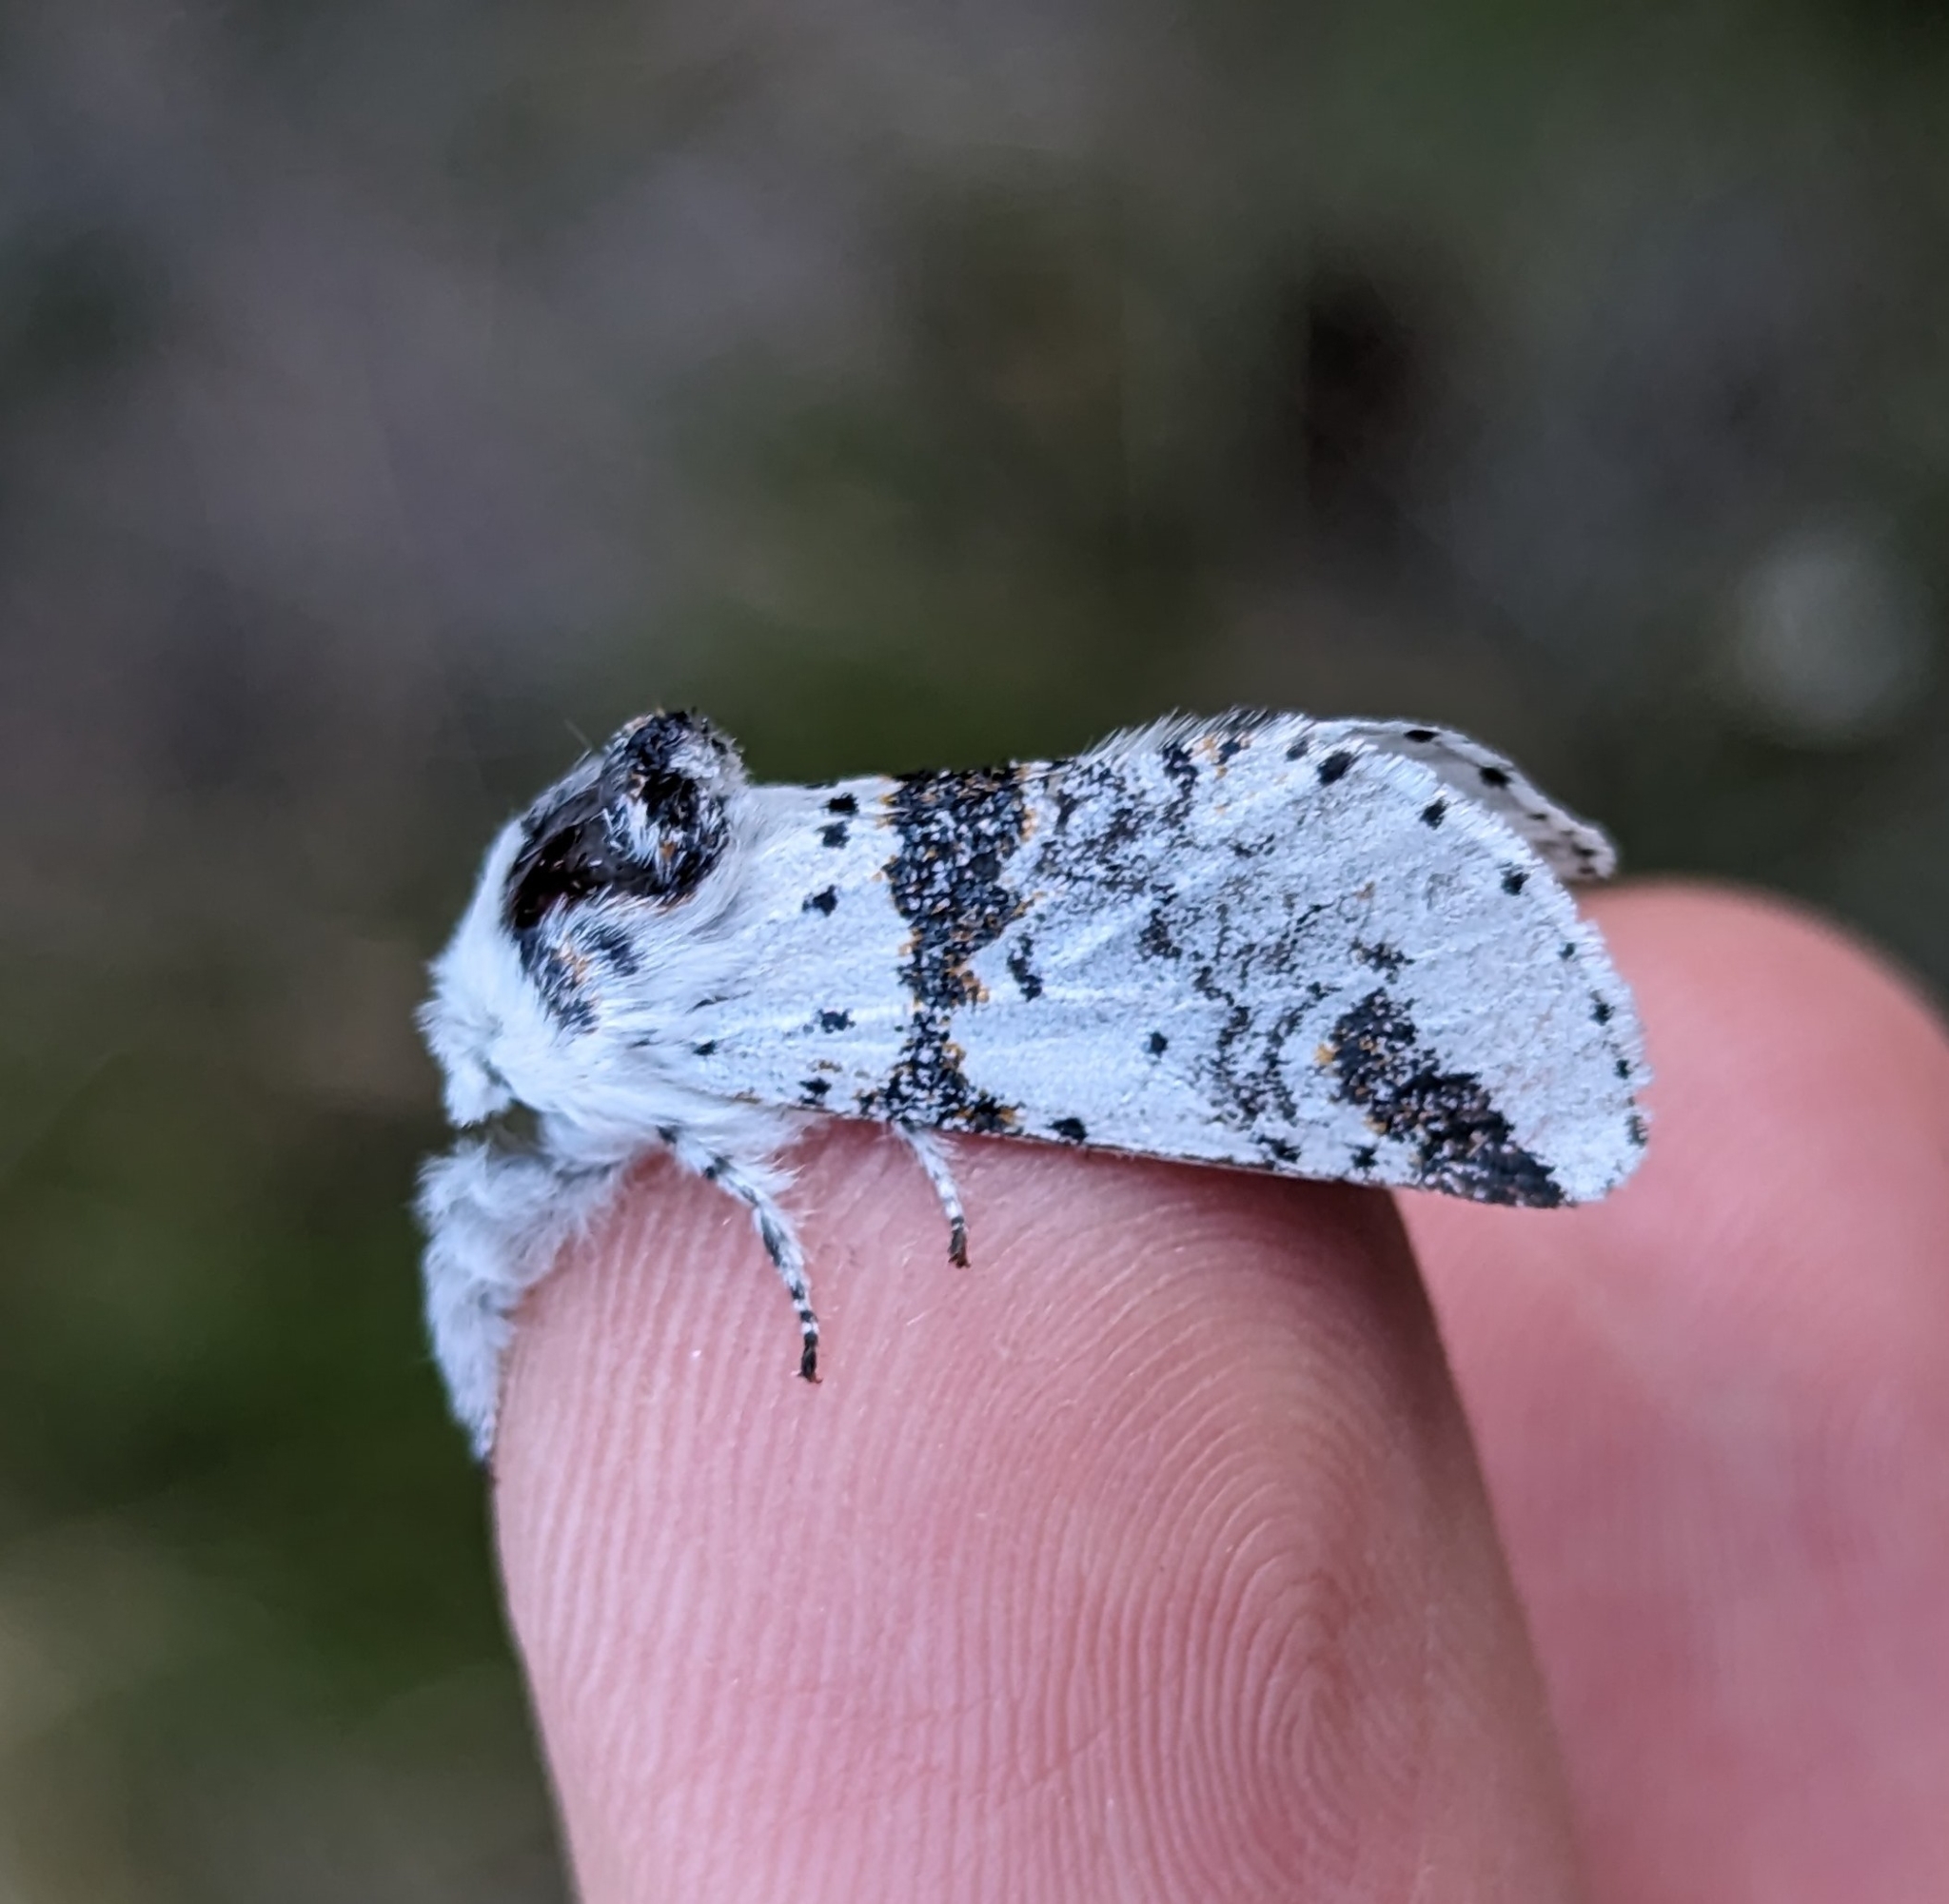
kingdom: Animalia
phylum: Arthropoda
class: Insecta
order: Lepidoptera
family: Notodontidae
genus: Furcula
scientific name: Furcula scolopendrina
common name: Zigzag furcula moth
